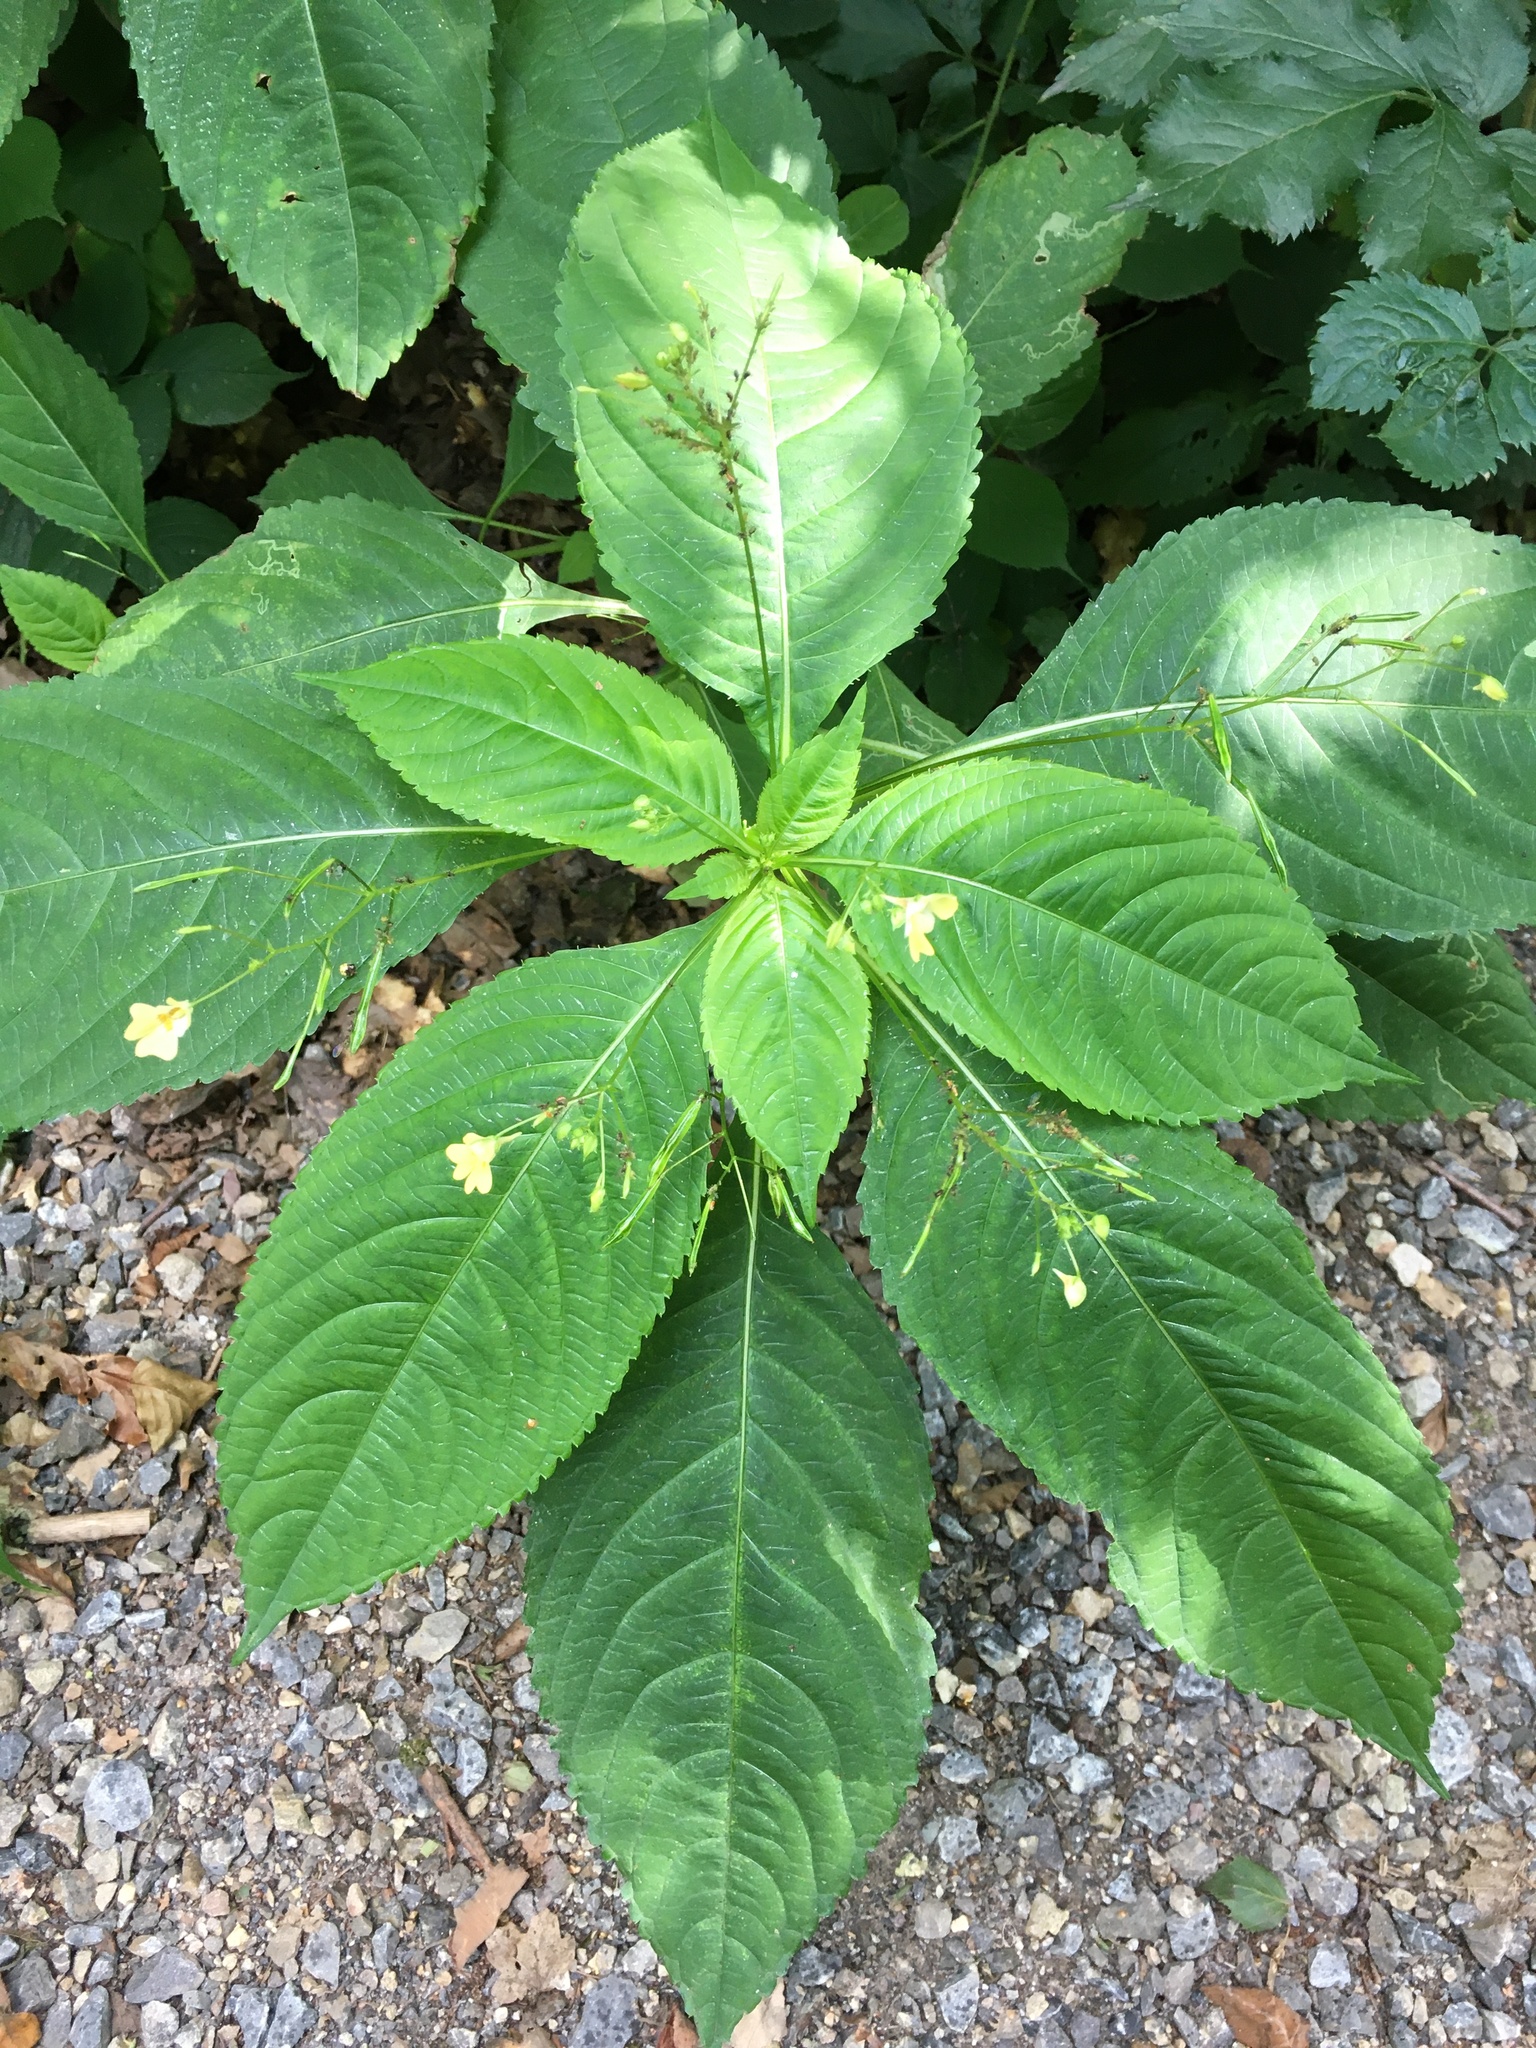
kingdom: Plantae
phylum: Tracheophyta
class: Magnoliopsida
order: Ericales
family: Balsaminaceae
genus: Impatiens
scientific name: Impatiens parviflora
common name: Small balsam
